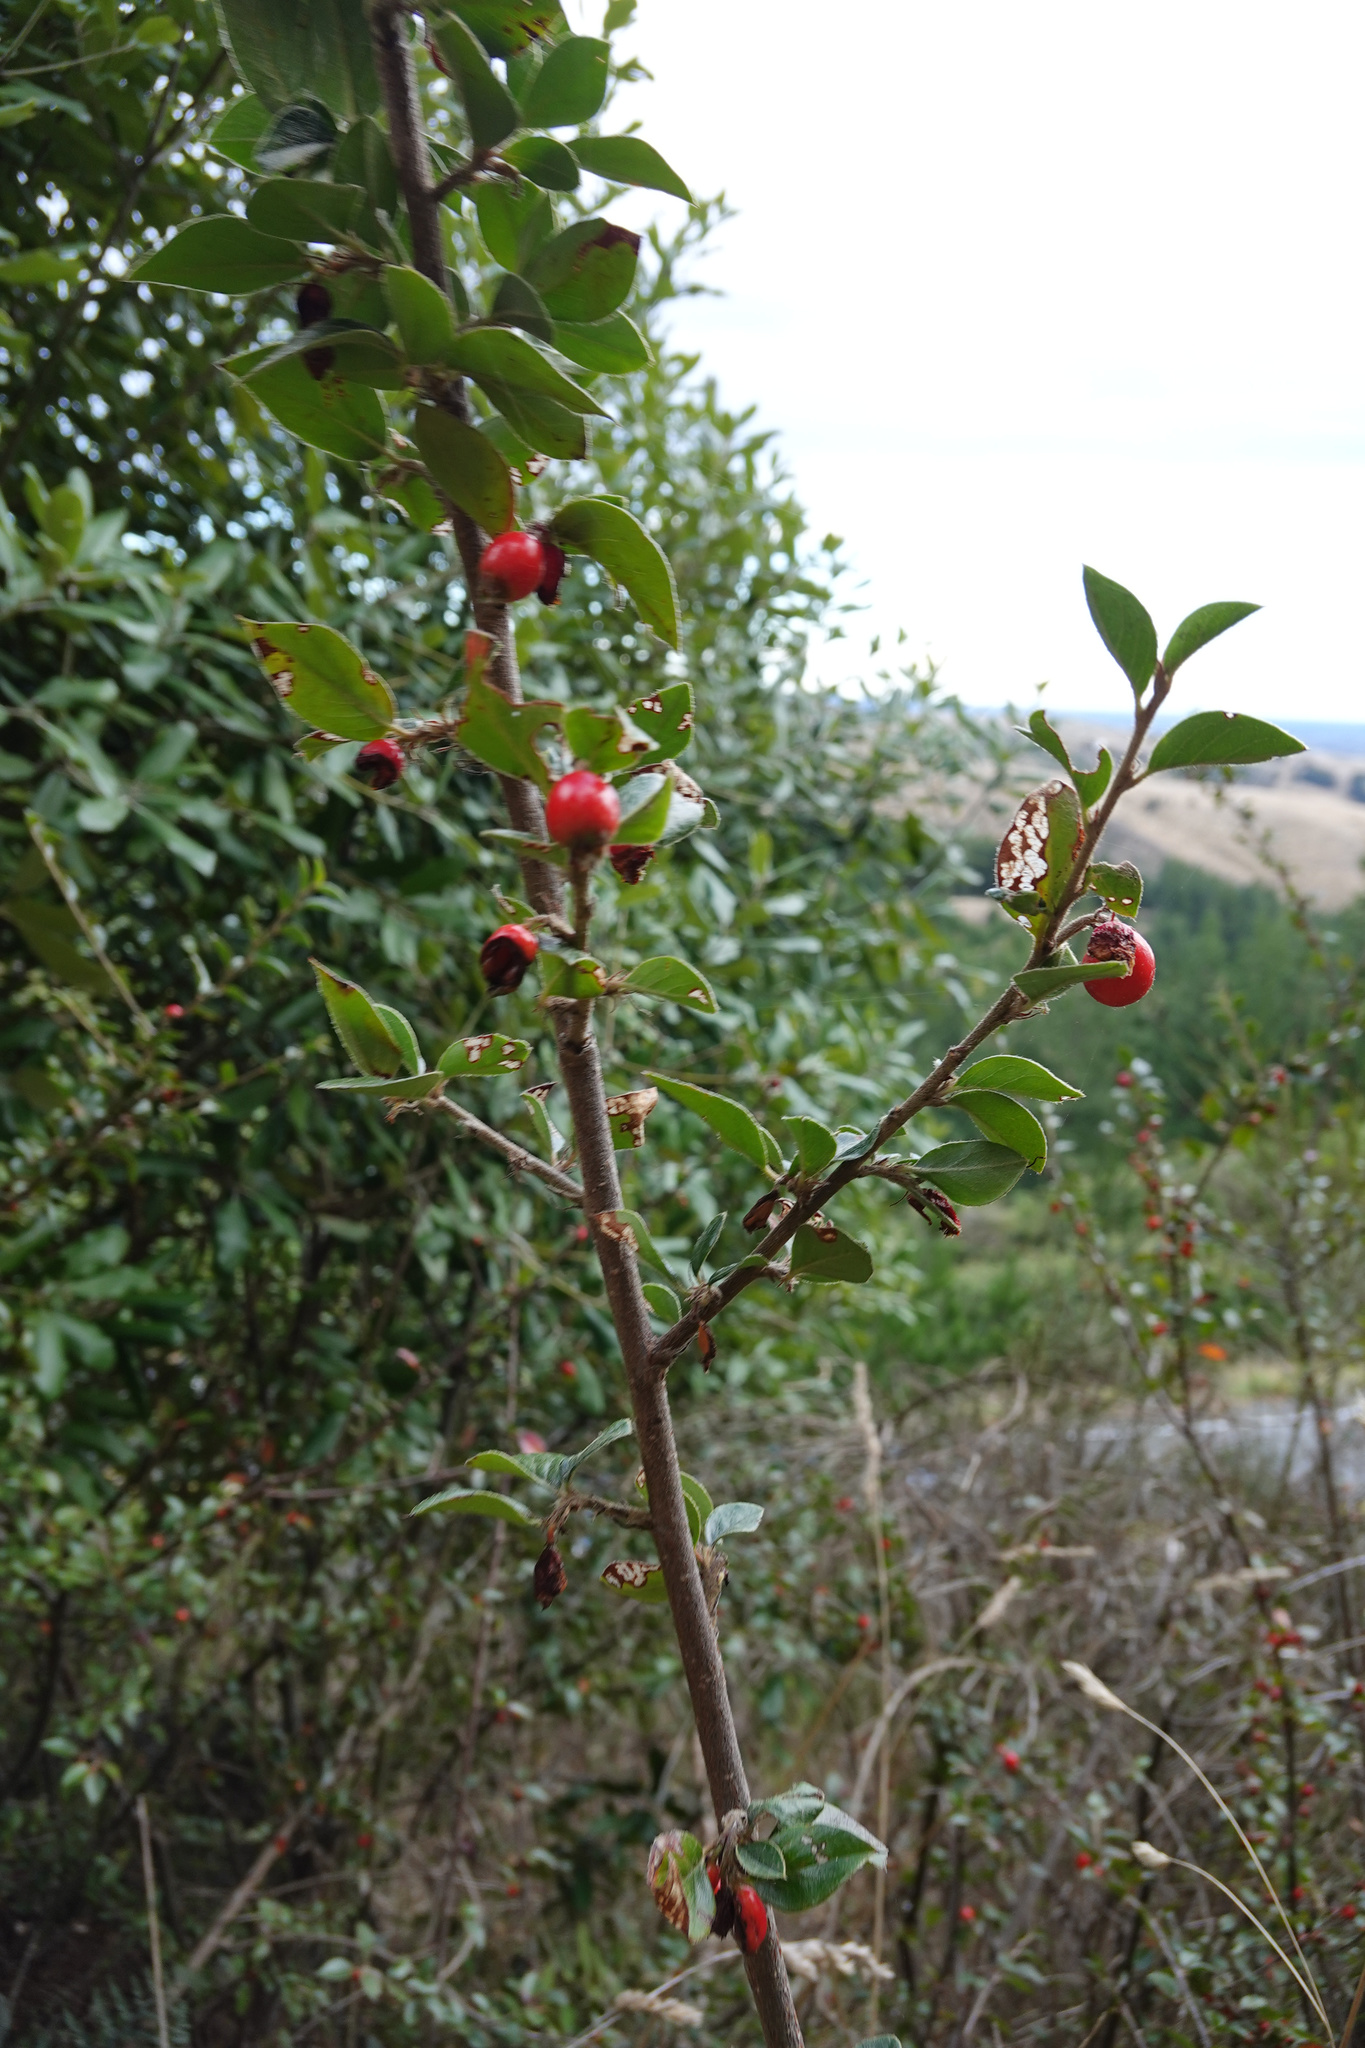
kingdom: Plantae
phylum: Tracheophyta
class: Magnoliopsida
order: Rosales
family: Rosaceae
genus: Cotoneaster
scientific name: Cotoneaster simonsii
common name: Himalayan cotoneaster
